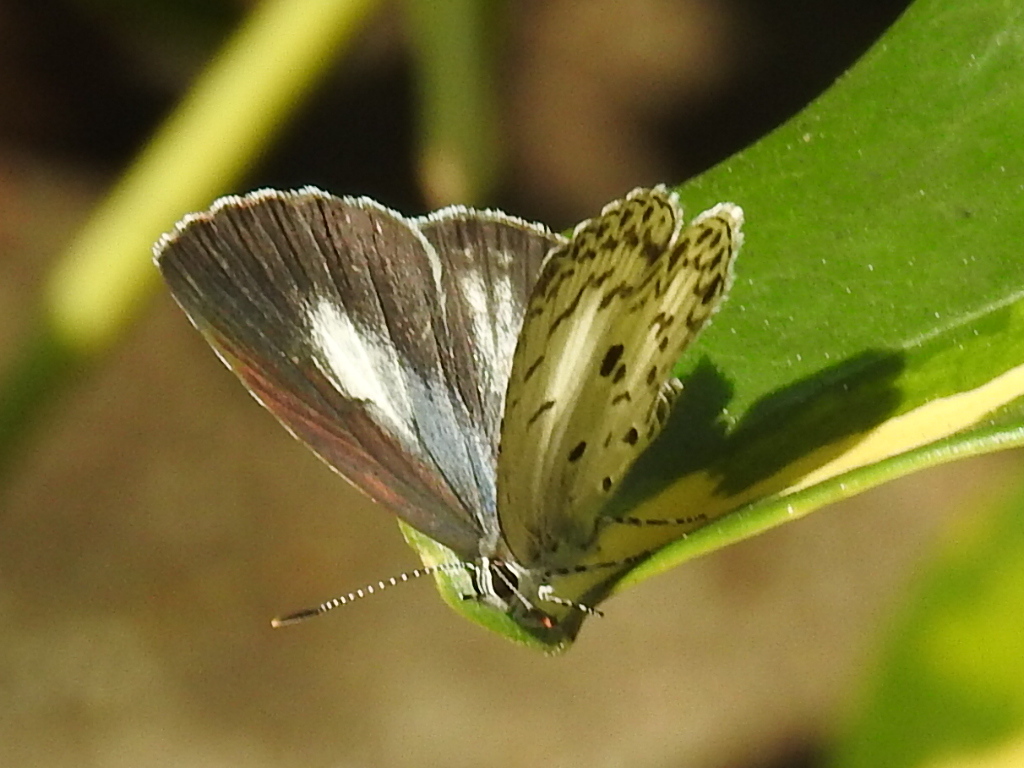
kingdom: Animalia
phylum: Arthropoda
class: Insecta
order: Lepidoptera
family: Lycaenidae
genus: Acytolepis
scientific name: Acytolepis puspa
